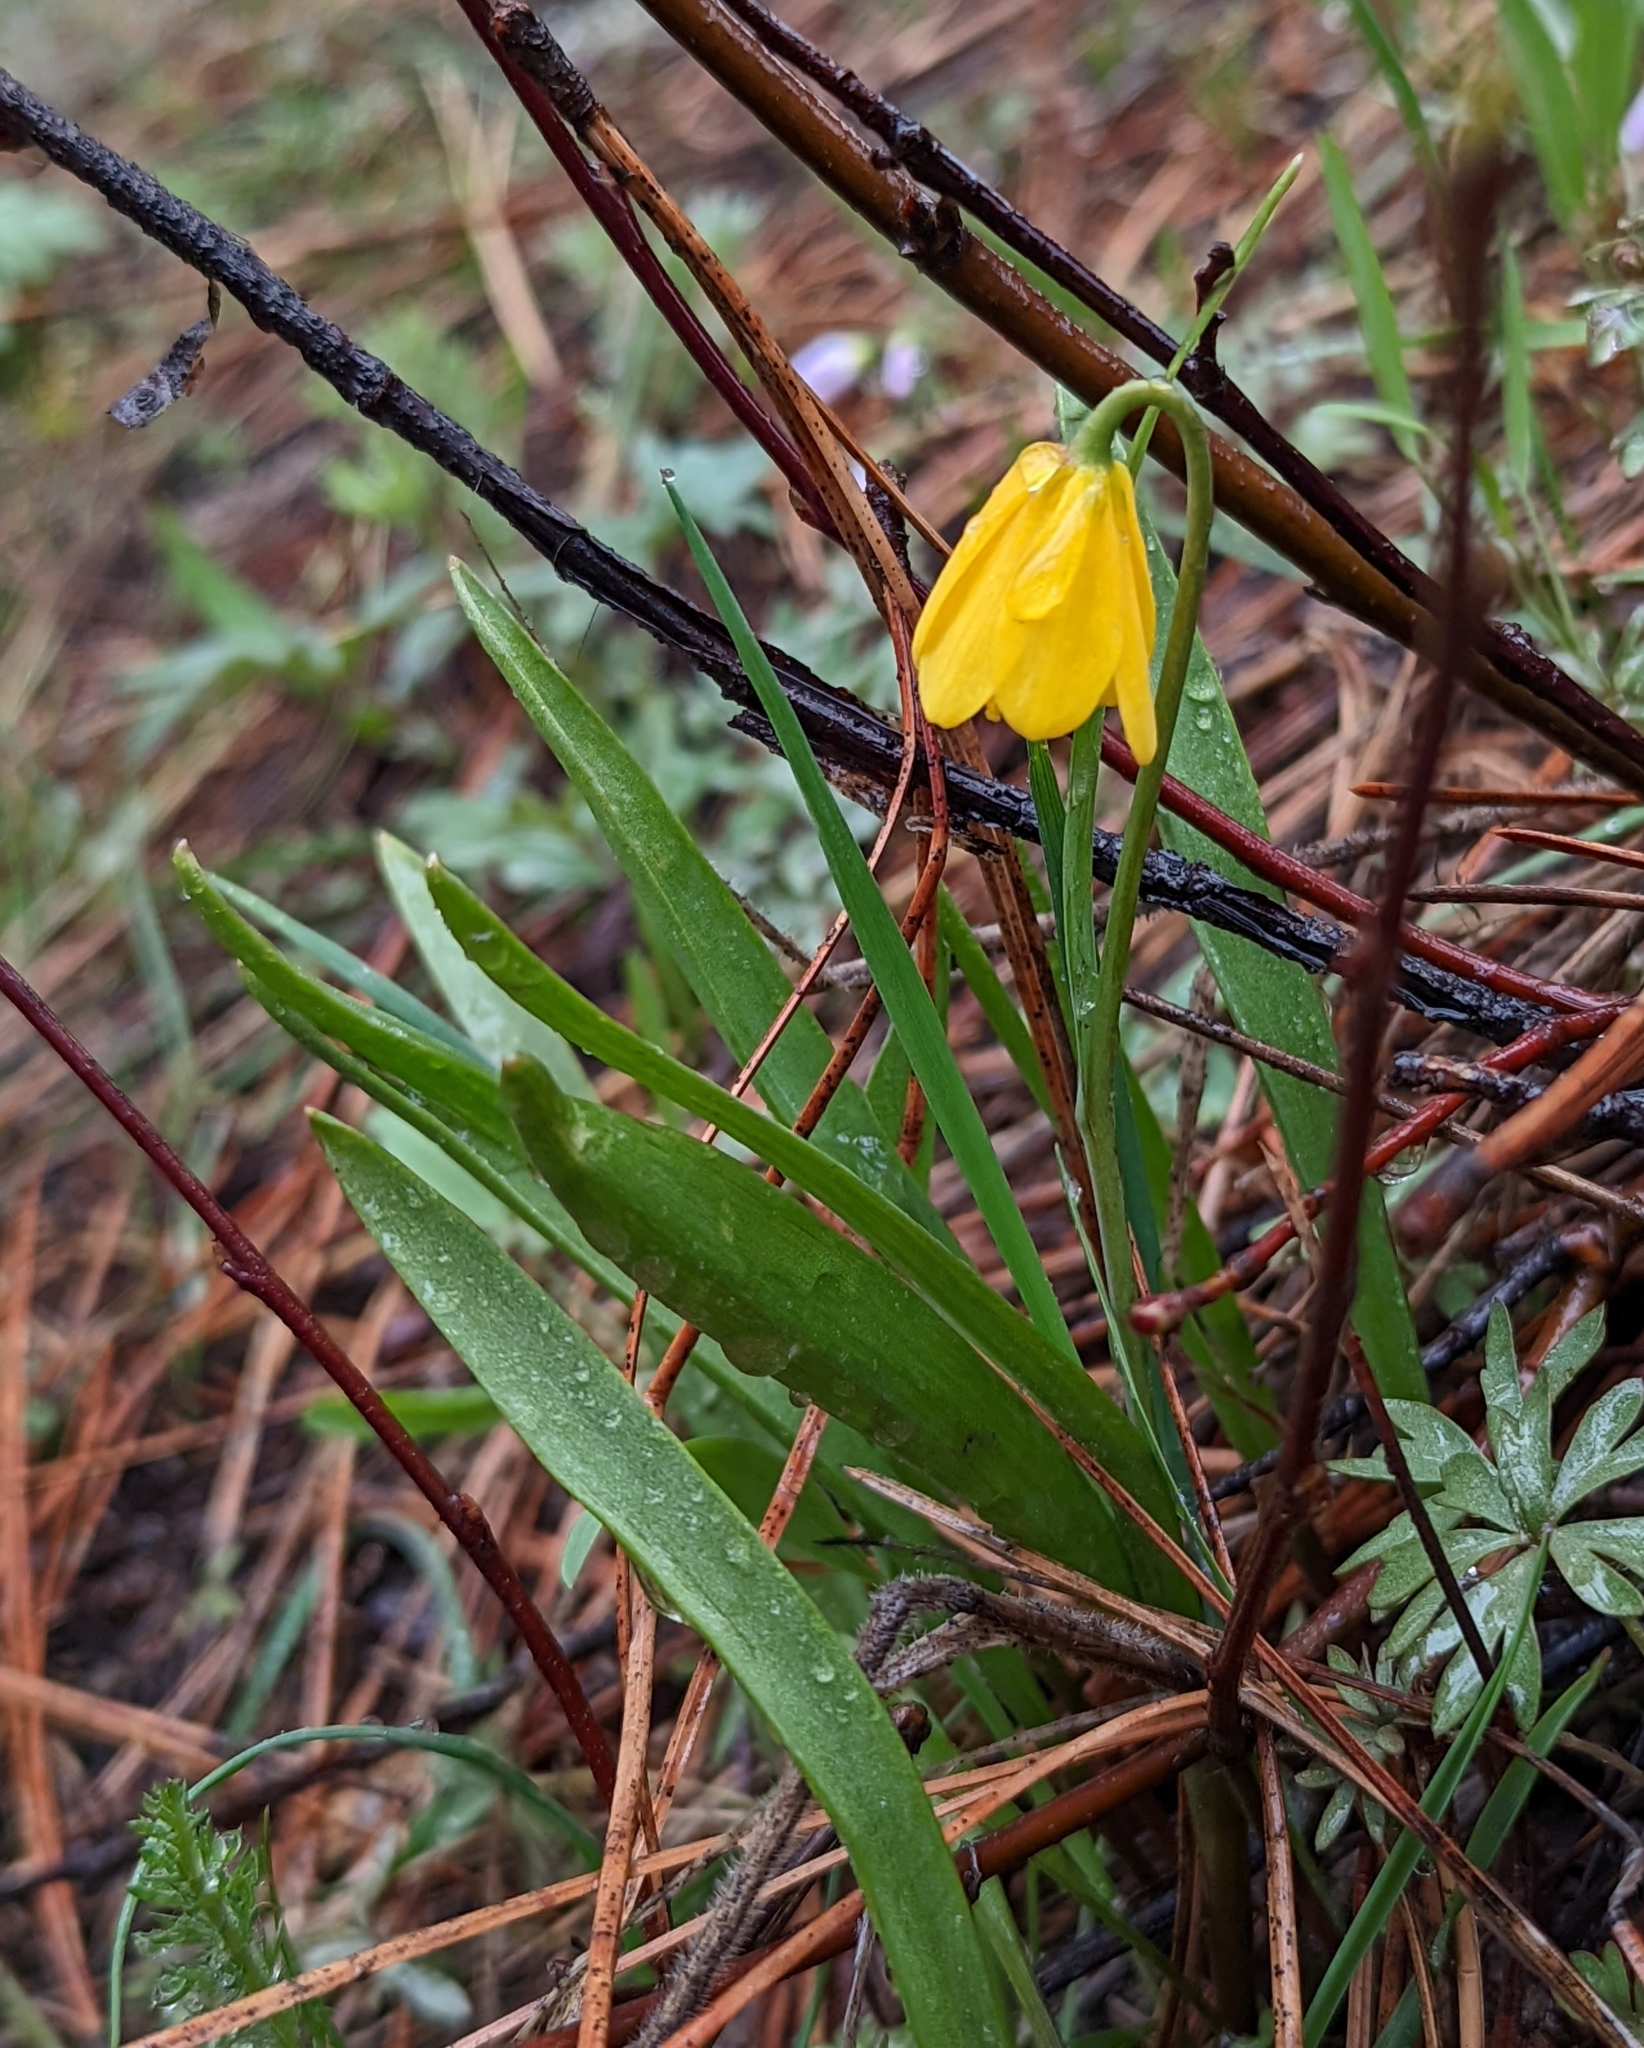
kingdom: Plantae
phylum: Tracheophyta
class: Liliopsida
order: Liliales
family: Liliaceae
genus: Fritillaria
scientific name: Fritillaria pudica
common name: Yellow fritillary
